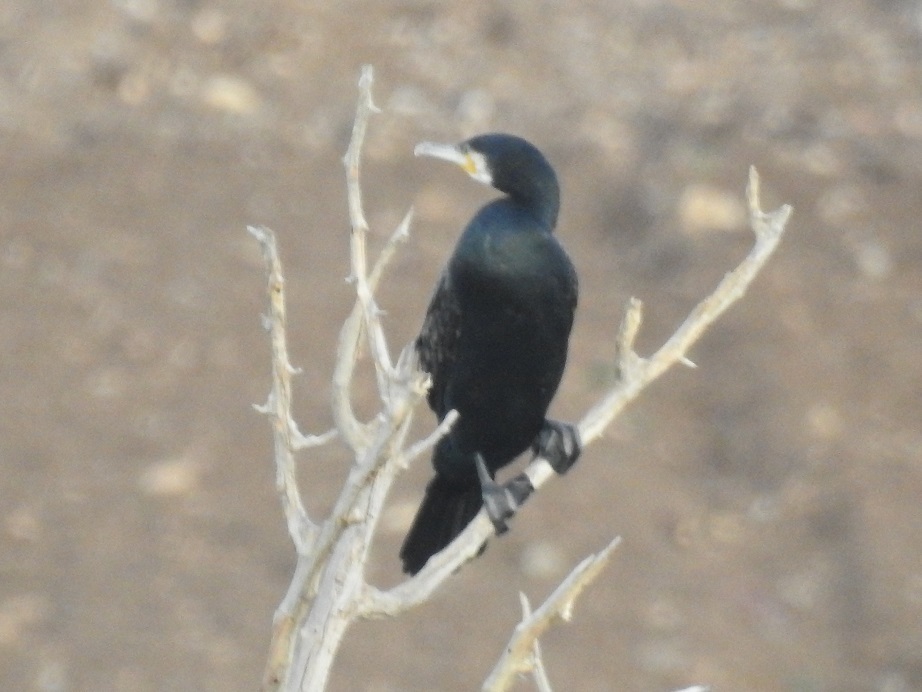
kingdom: Animalia
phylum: Chordata
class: Aves
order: Suliformes
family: Phalacrocoracidae
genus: Phalacrocorax
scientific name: Phalacrocorax carbo
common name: Great cormorant
